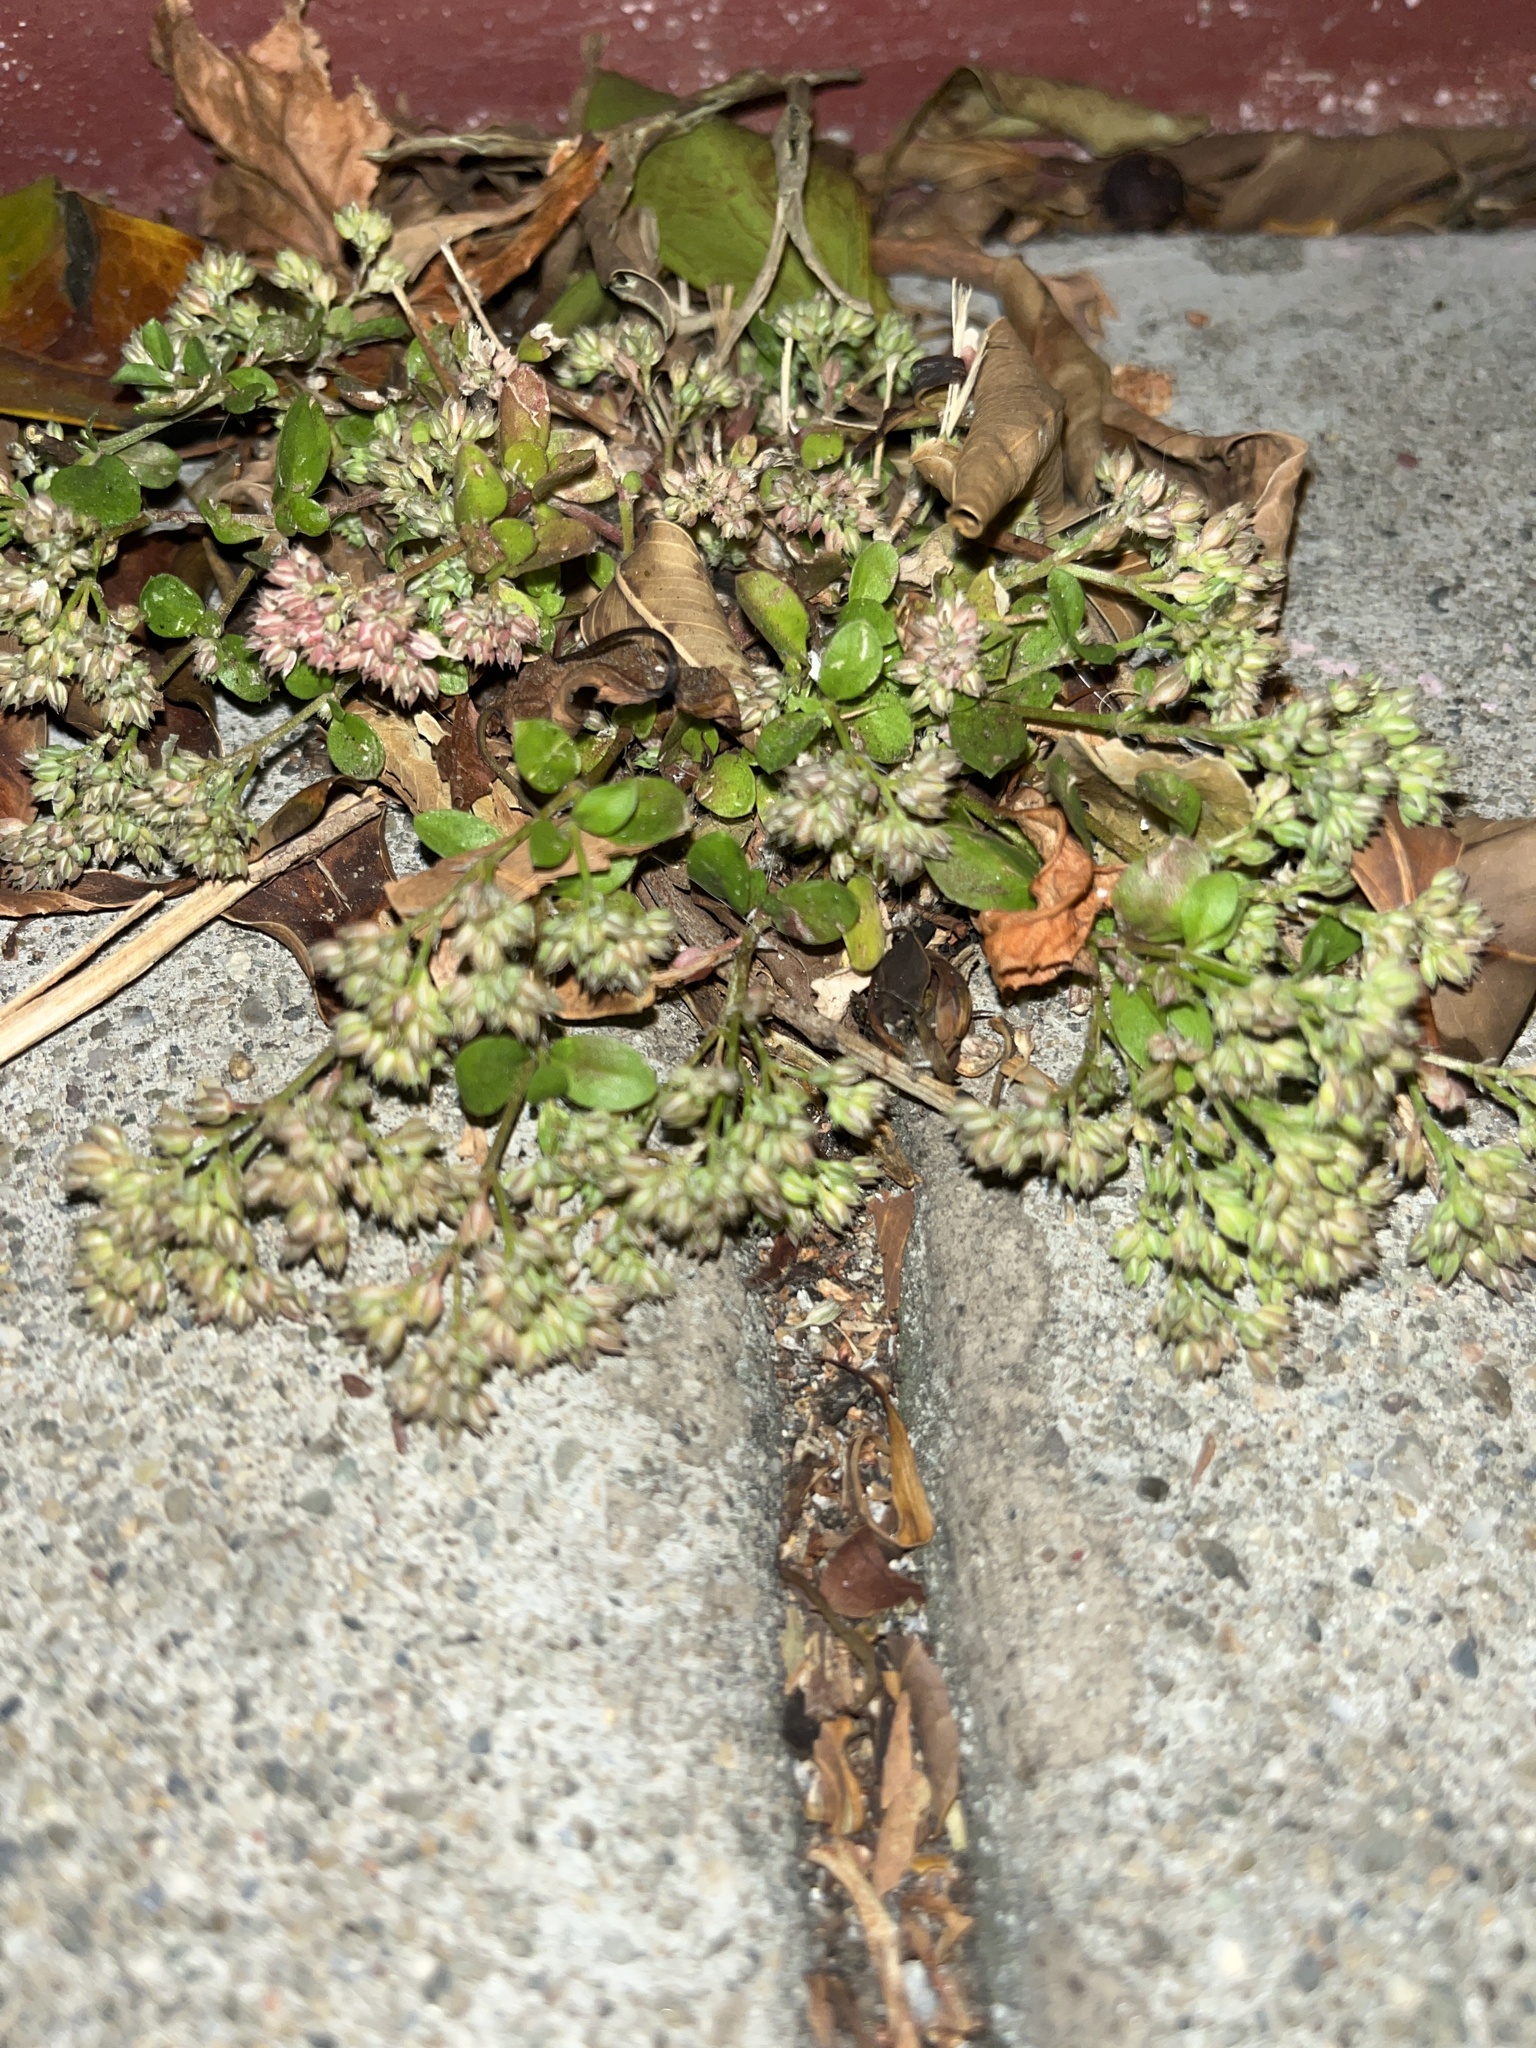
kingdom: Plantae
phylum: Tracheophyta
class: Magnoliopsida
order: Caryophyllales
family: Caryophyllaceae
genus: Polycarpon
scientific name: Polycarpon tetraphyllum
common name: Four-leaved all-seed
